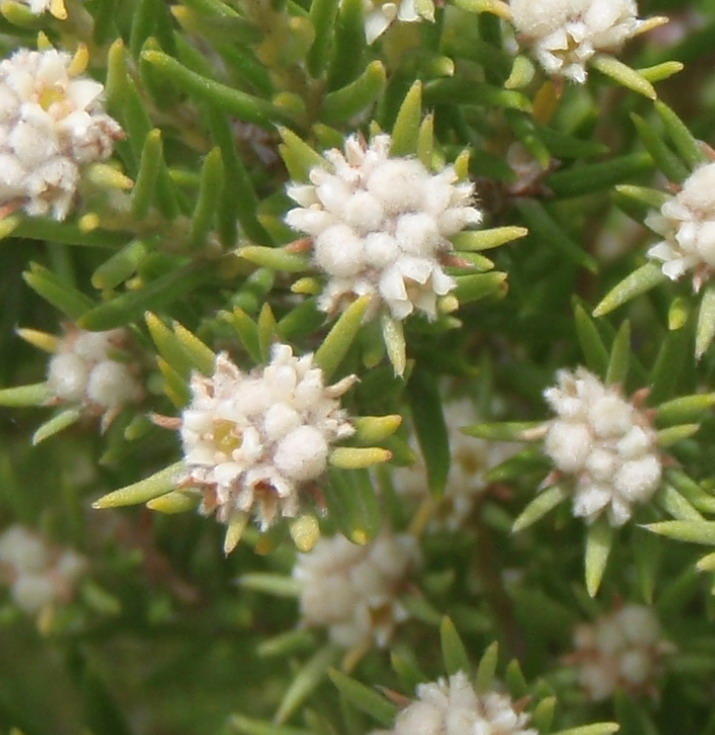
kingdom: Plantae
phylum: Tracheophyta
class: Magnoliopsida
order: Rosales
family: Rhamnaceae
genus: Phylica
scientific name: Phylica wittebergensis
